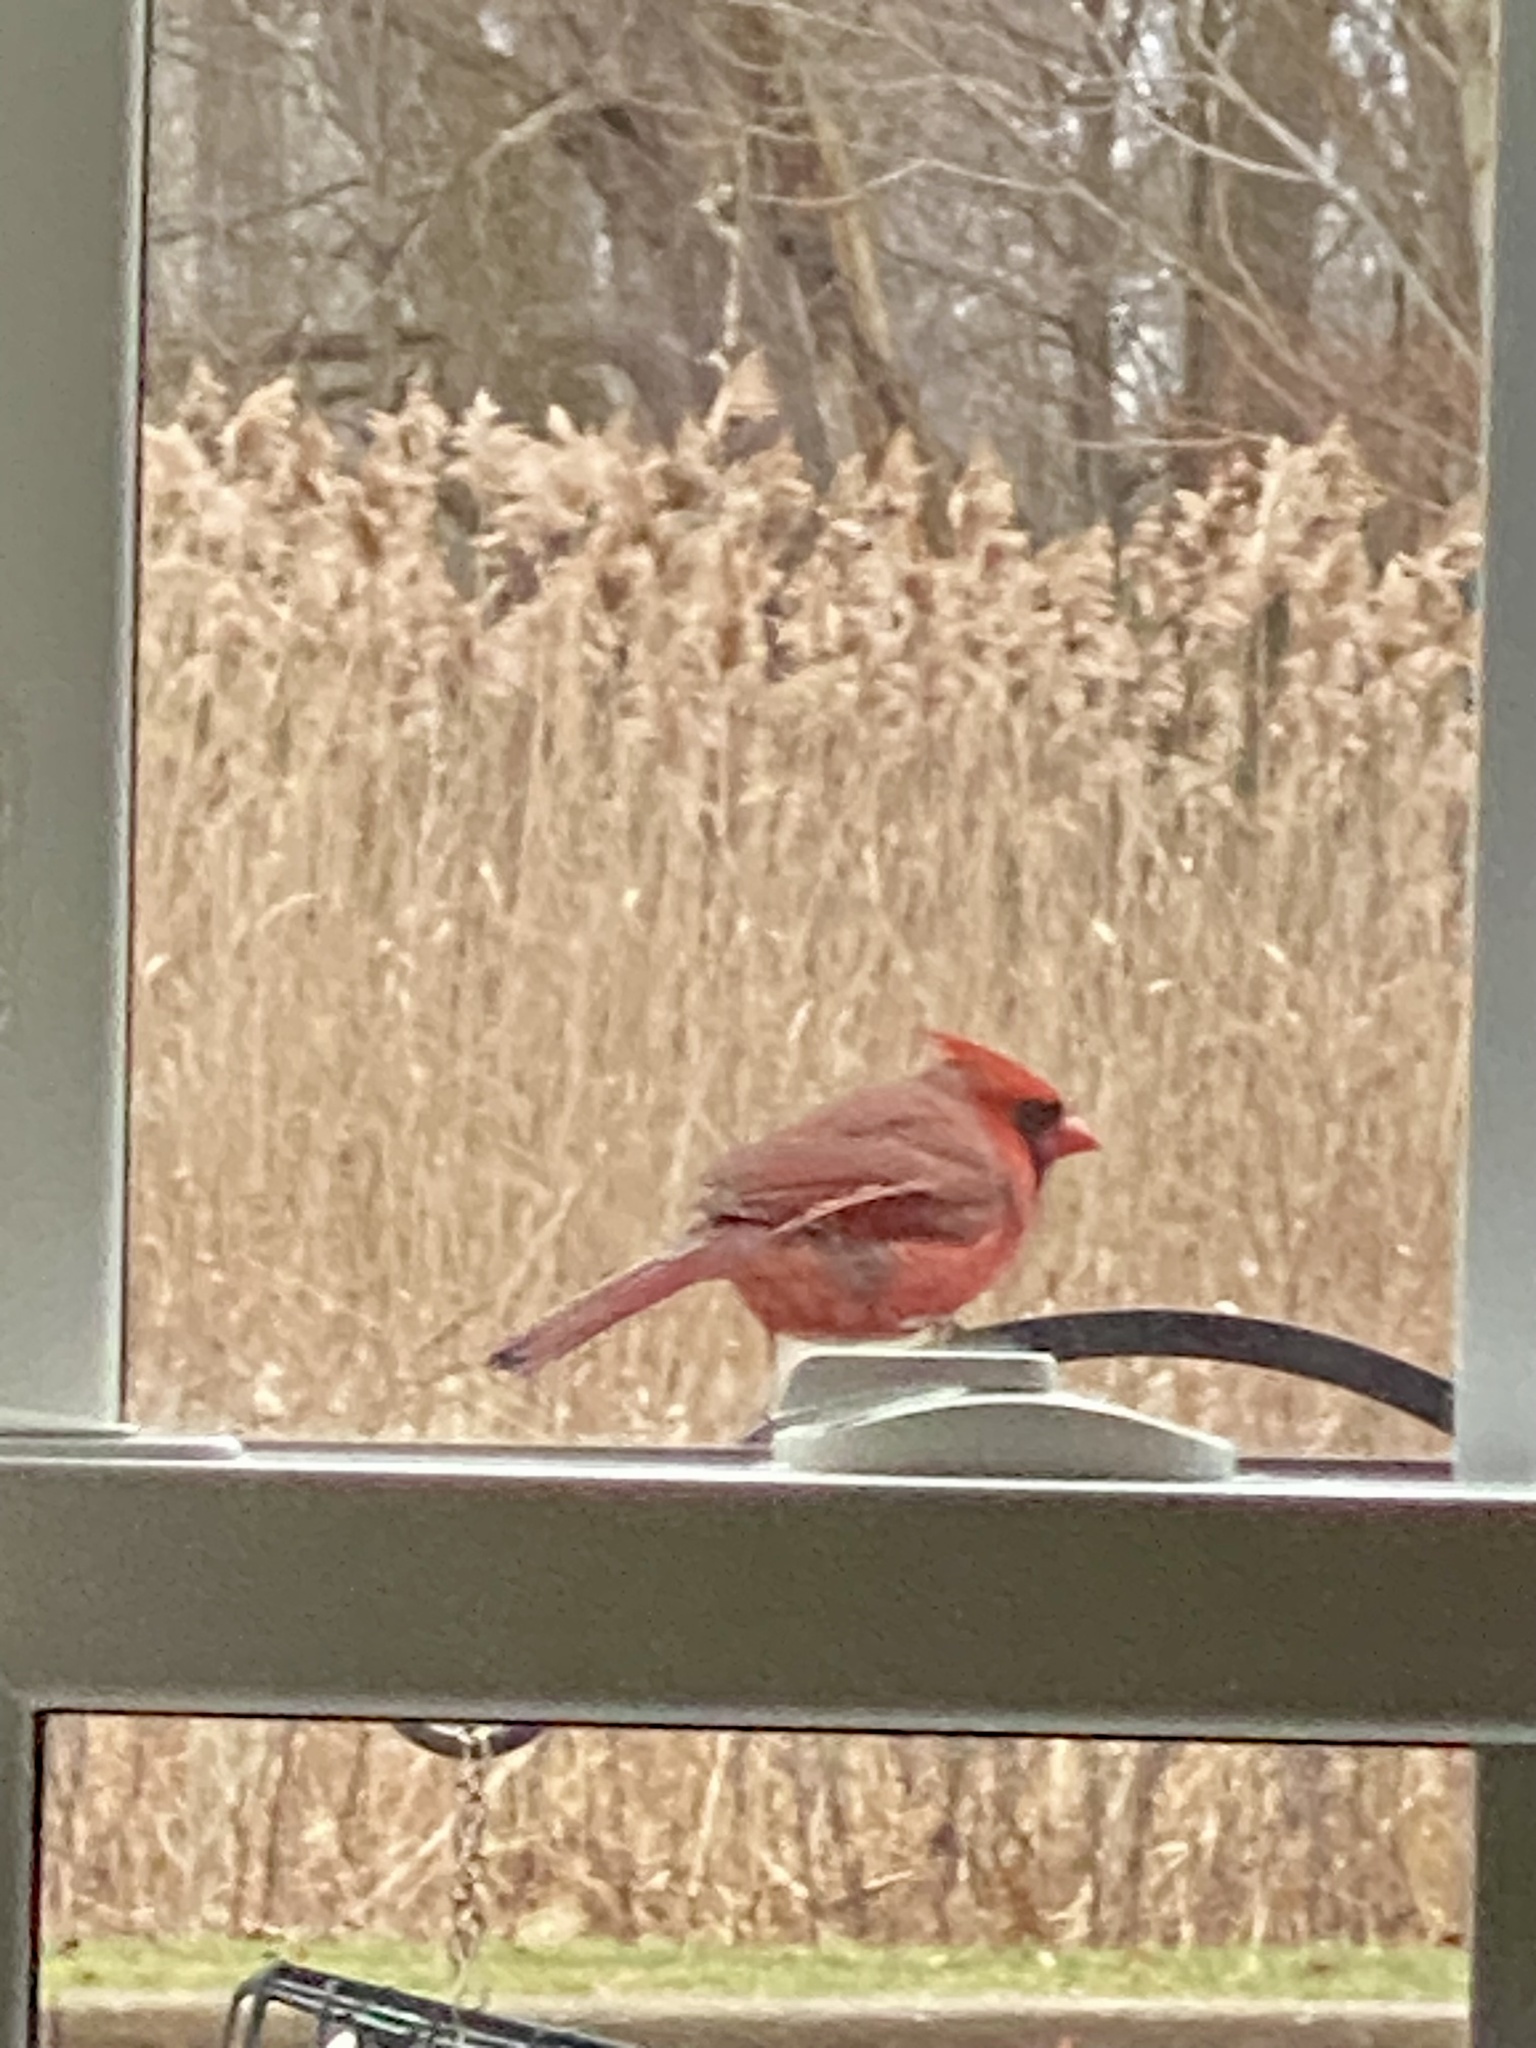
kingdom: Animalia
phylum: Chordata
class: Aves
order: Passeriformes
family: Cardinalidae
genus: Cardinalis
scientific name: Cardinalis cardinalis
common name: Northern cardinal
